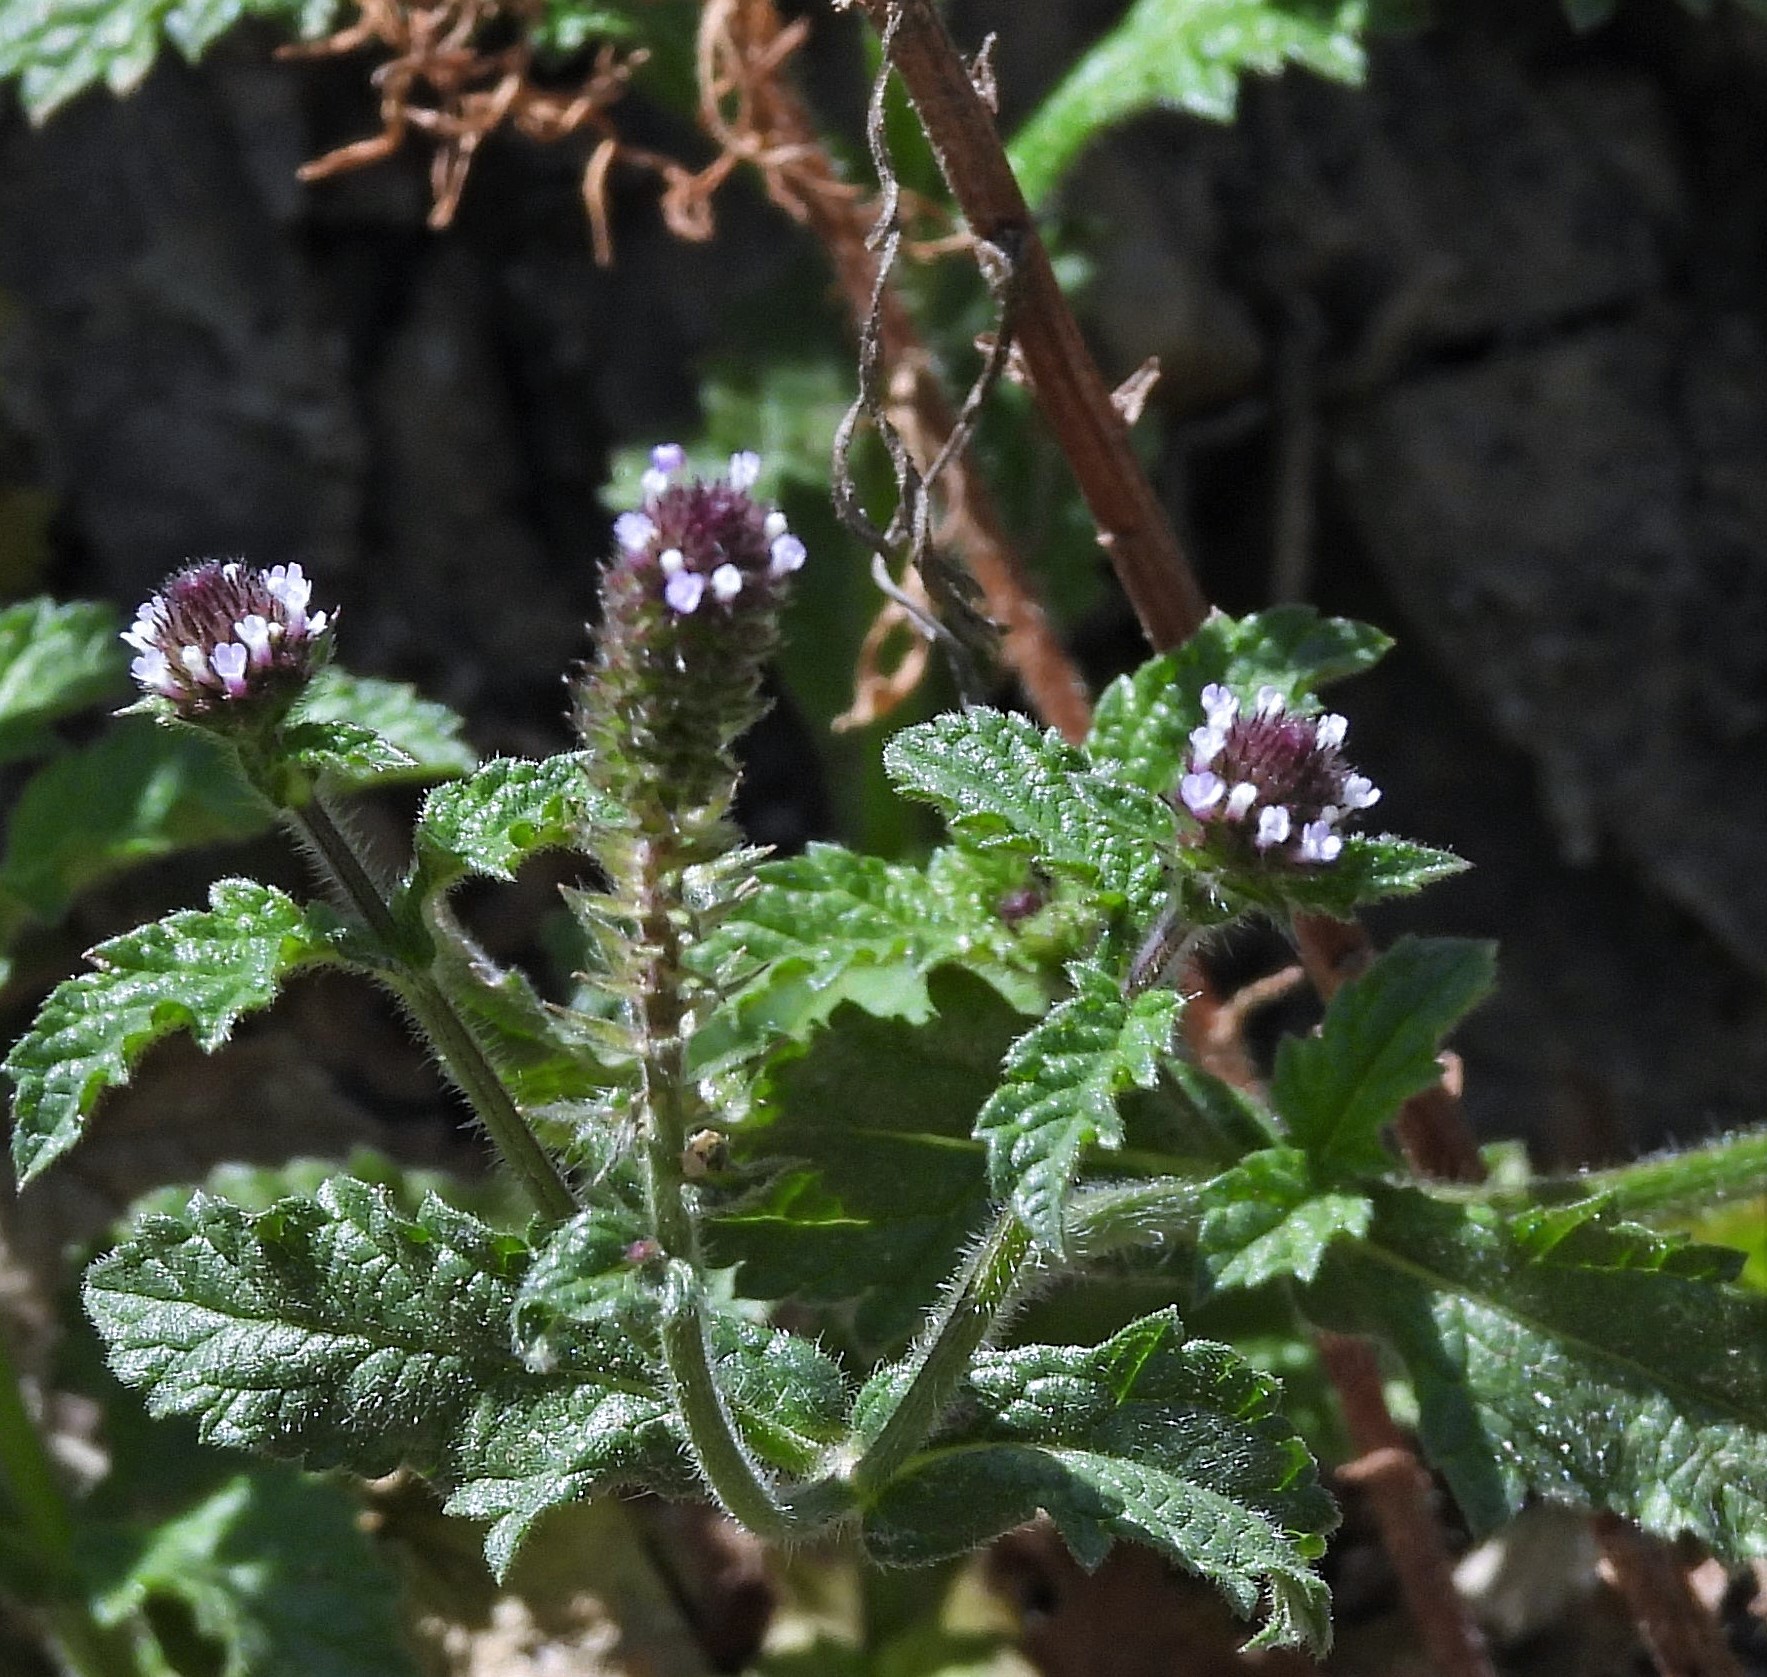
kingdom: Plantae
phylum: Tracheophyta
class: Magnoliopsida
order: Lamiales
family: Verbenaceae
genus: Verbena
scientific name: Verbena hispida
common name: Hairy vervain
